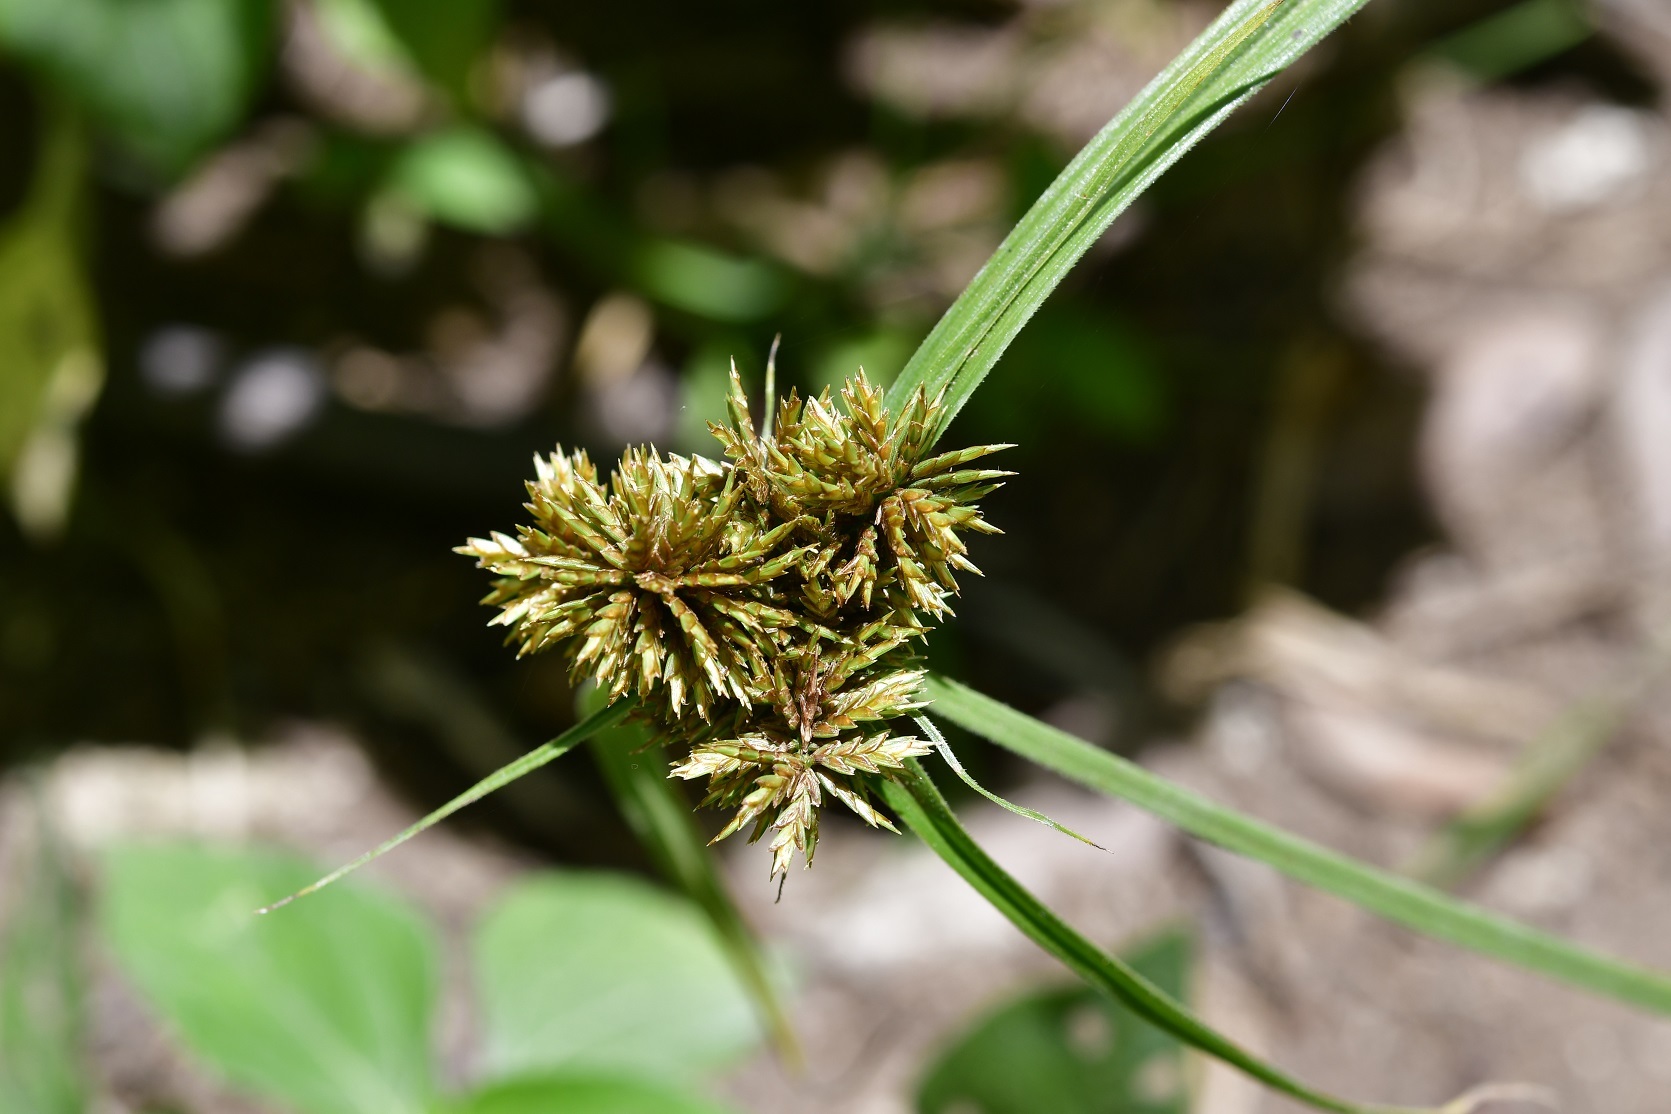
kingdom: Plantae
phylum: Tracheophyta
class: Liliopsida
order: Poales
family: Cyperaceae
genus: Cyperus
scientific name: Cyperus manimae
